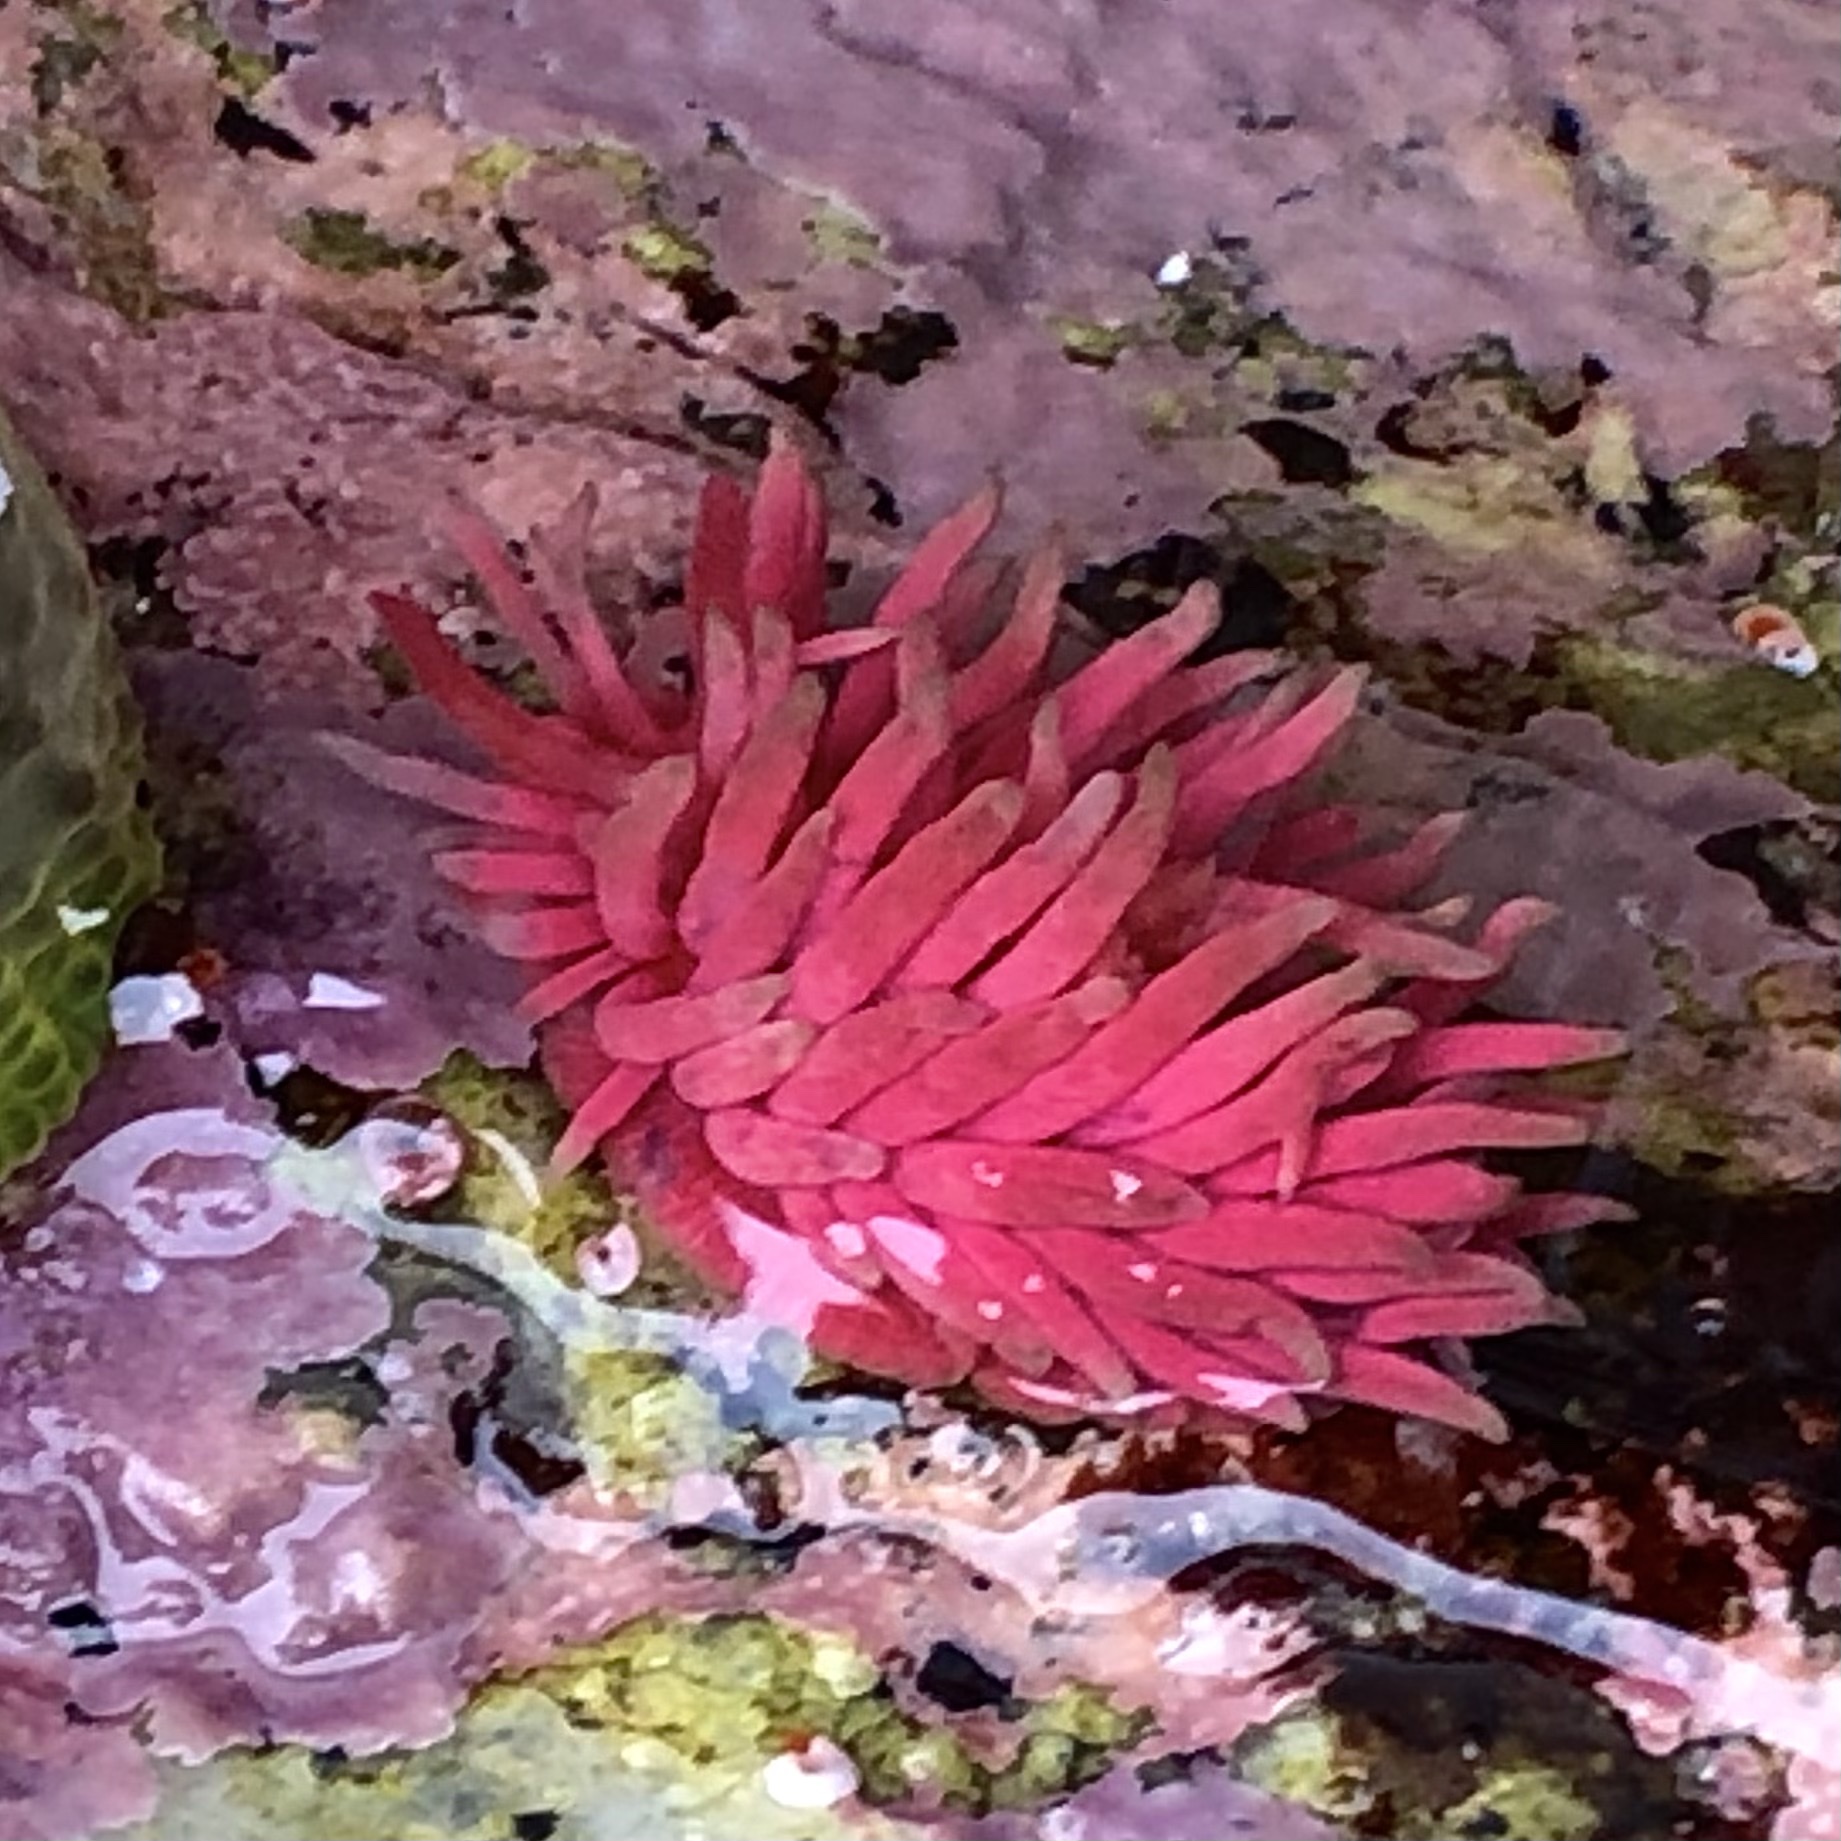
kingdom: Animalia
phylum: Mollusca
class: Gastropoda
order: Nudibranchia
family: Goniodorididae
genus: Okenia
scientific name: Okenia
